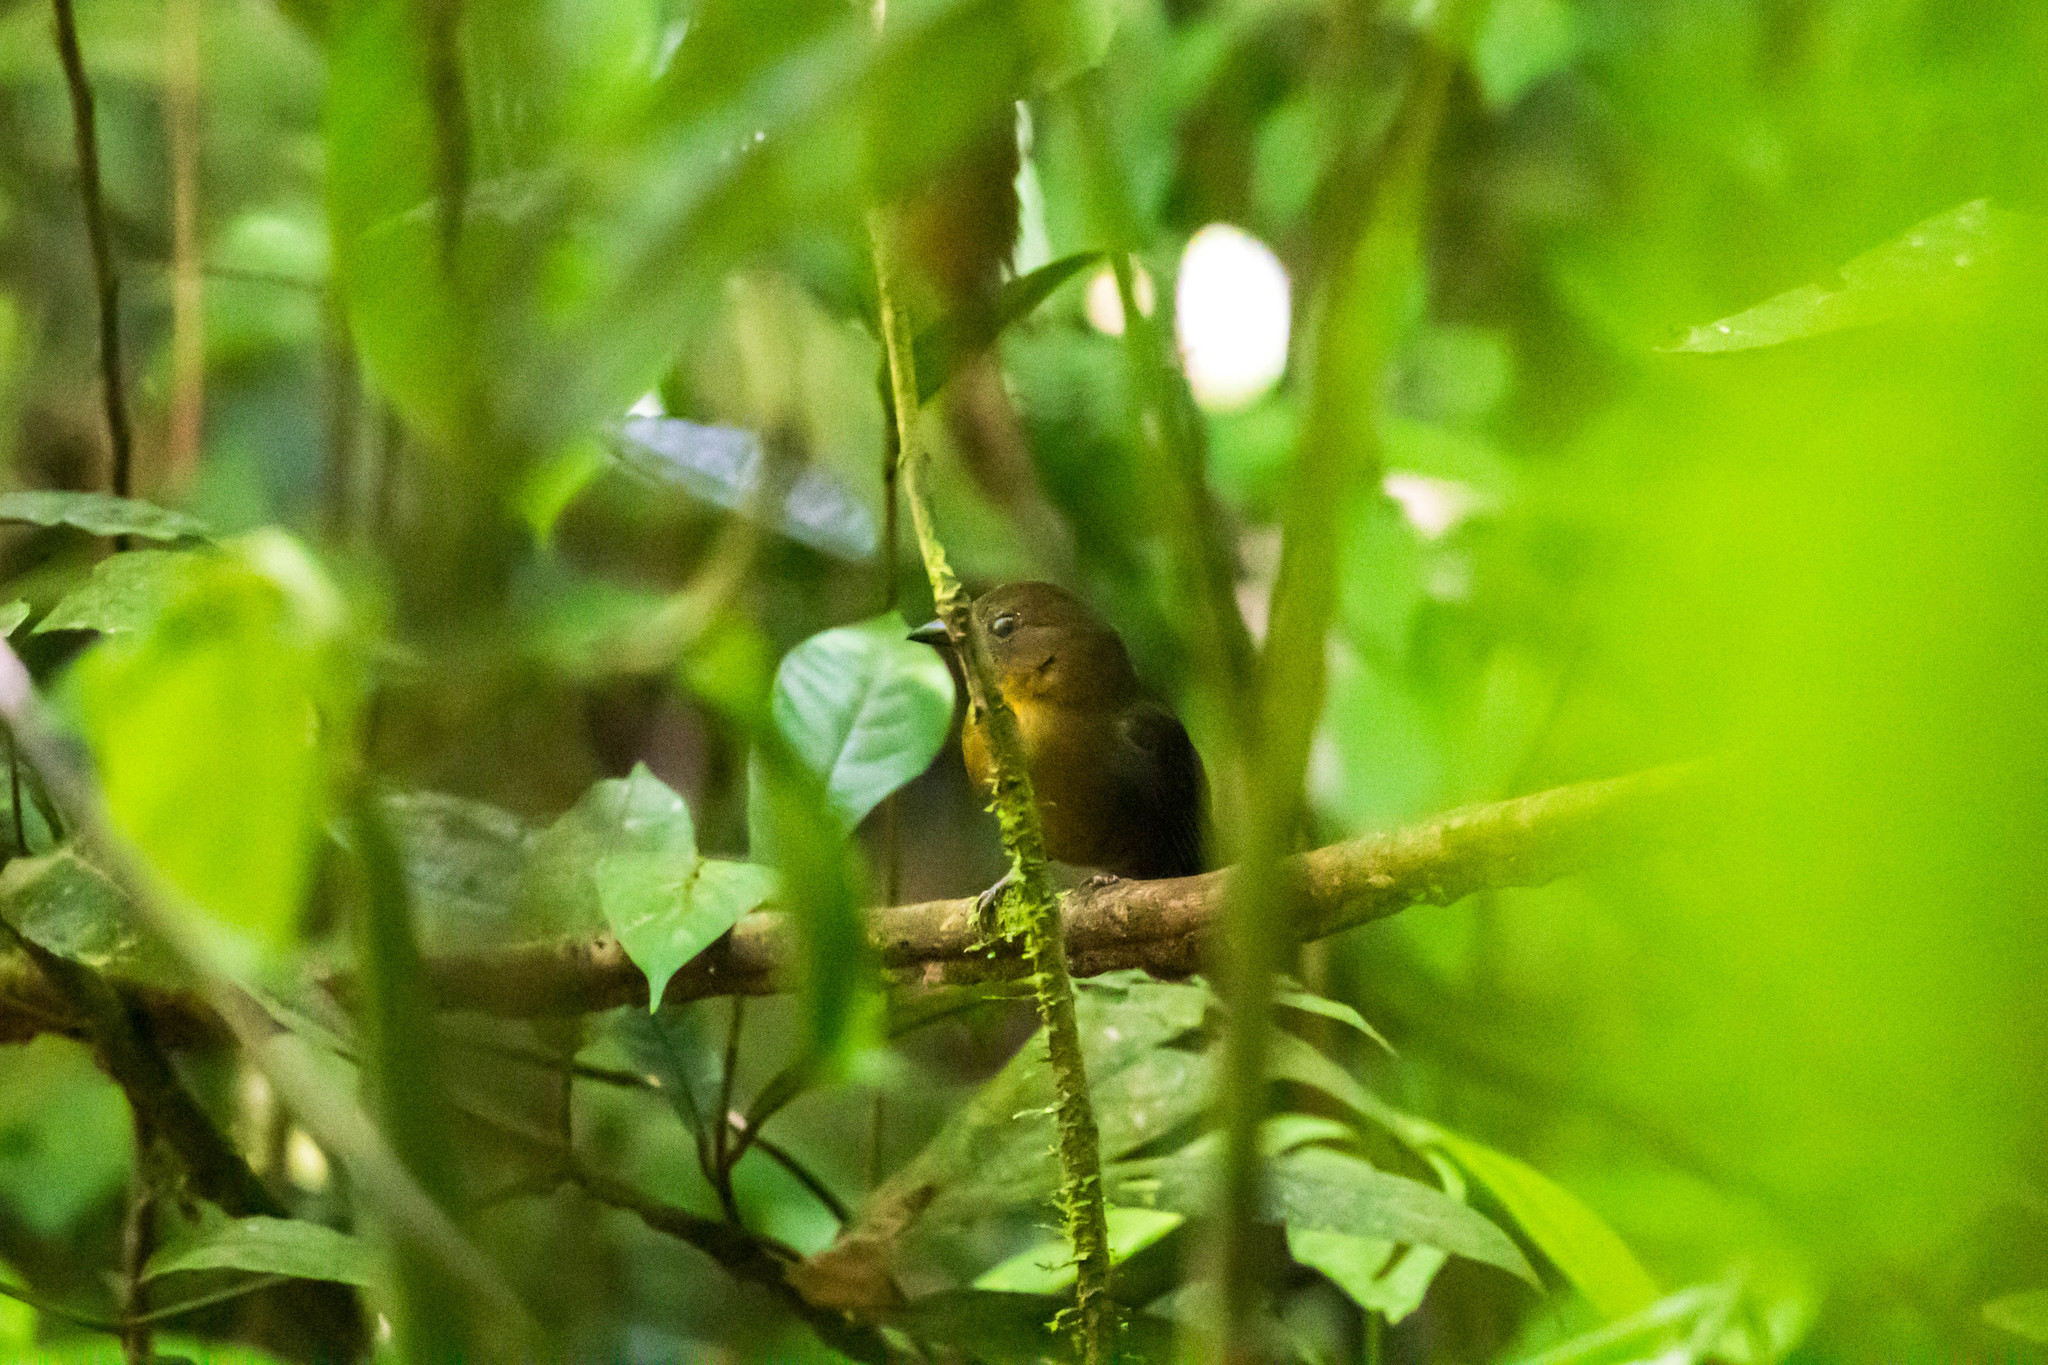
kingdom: Animalia
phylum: Chordata
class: Aves
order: Passeriformes
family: Cardinalidae
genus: Habia
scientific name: Habia fuscicauda
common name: Red-throated ant-tanager
